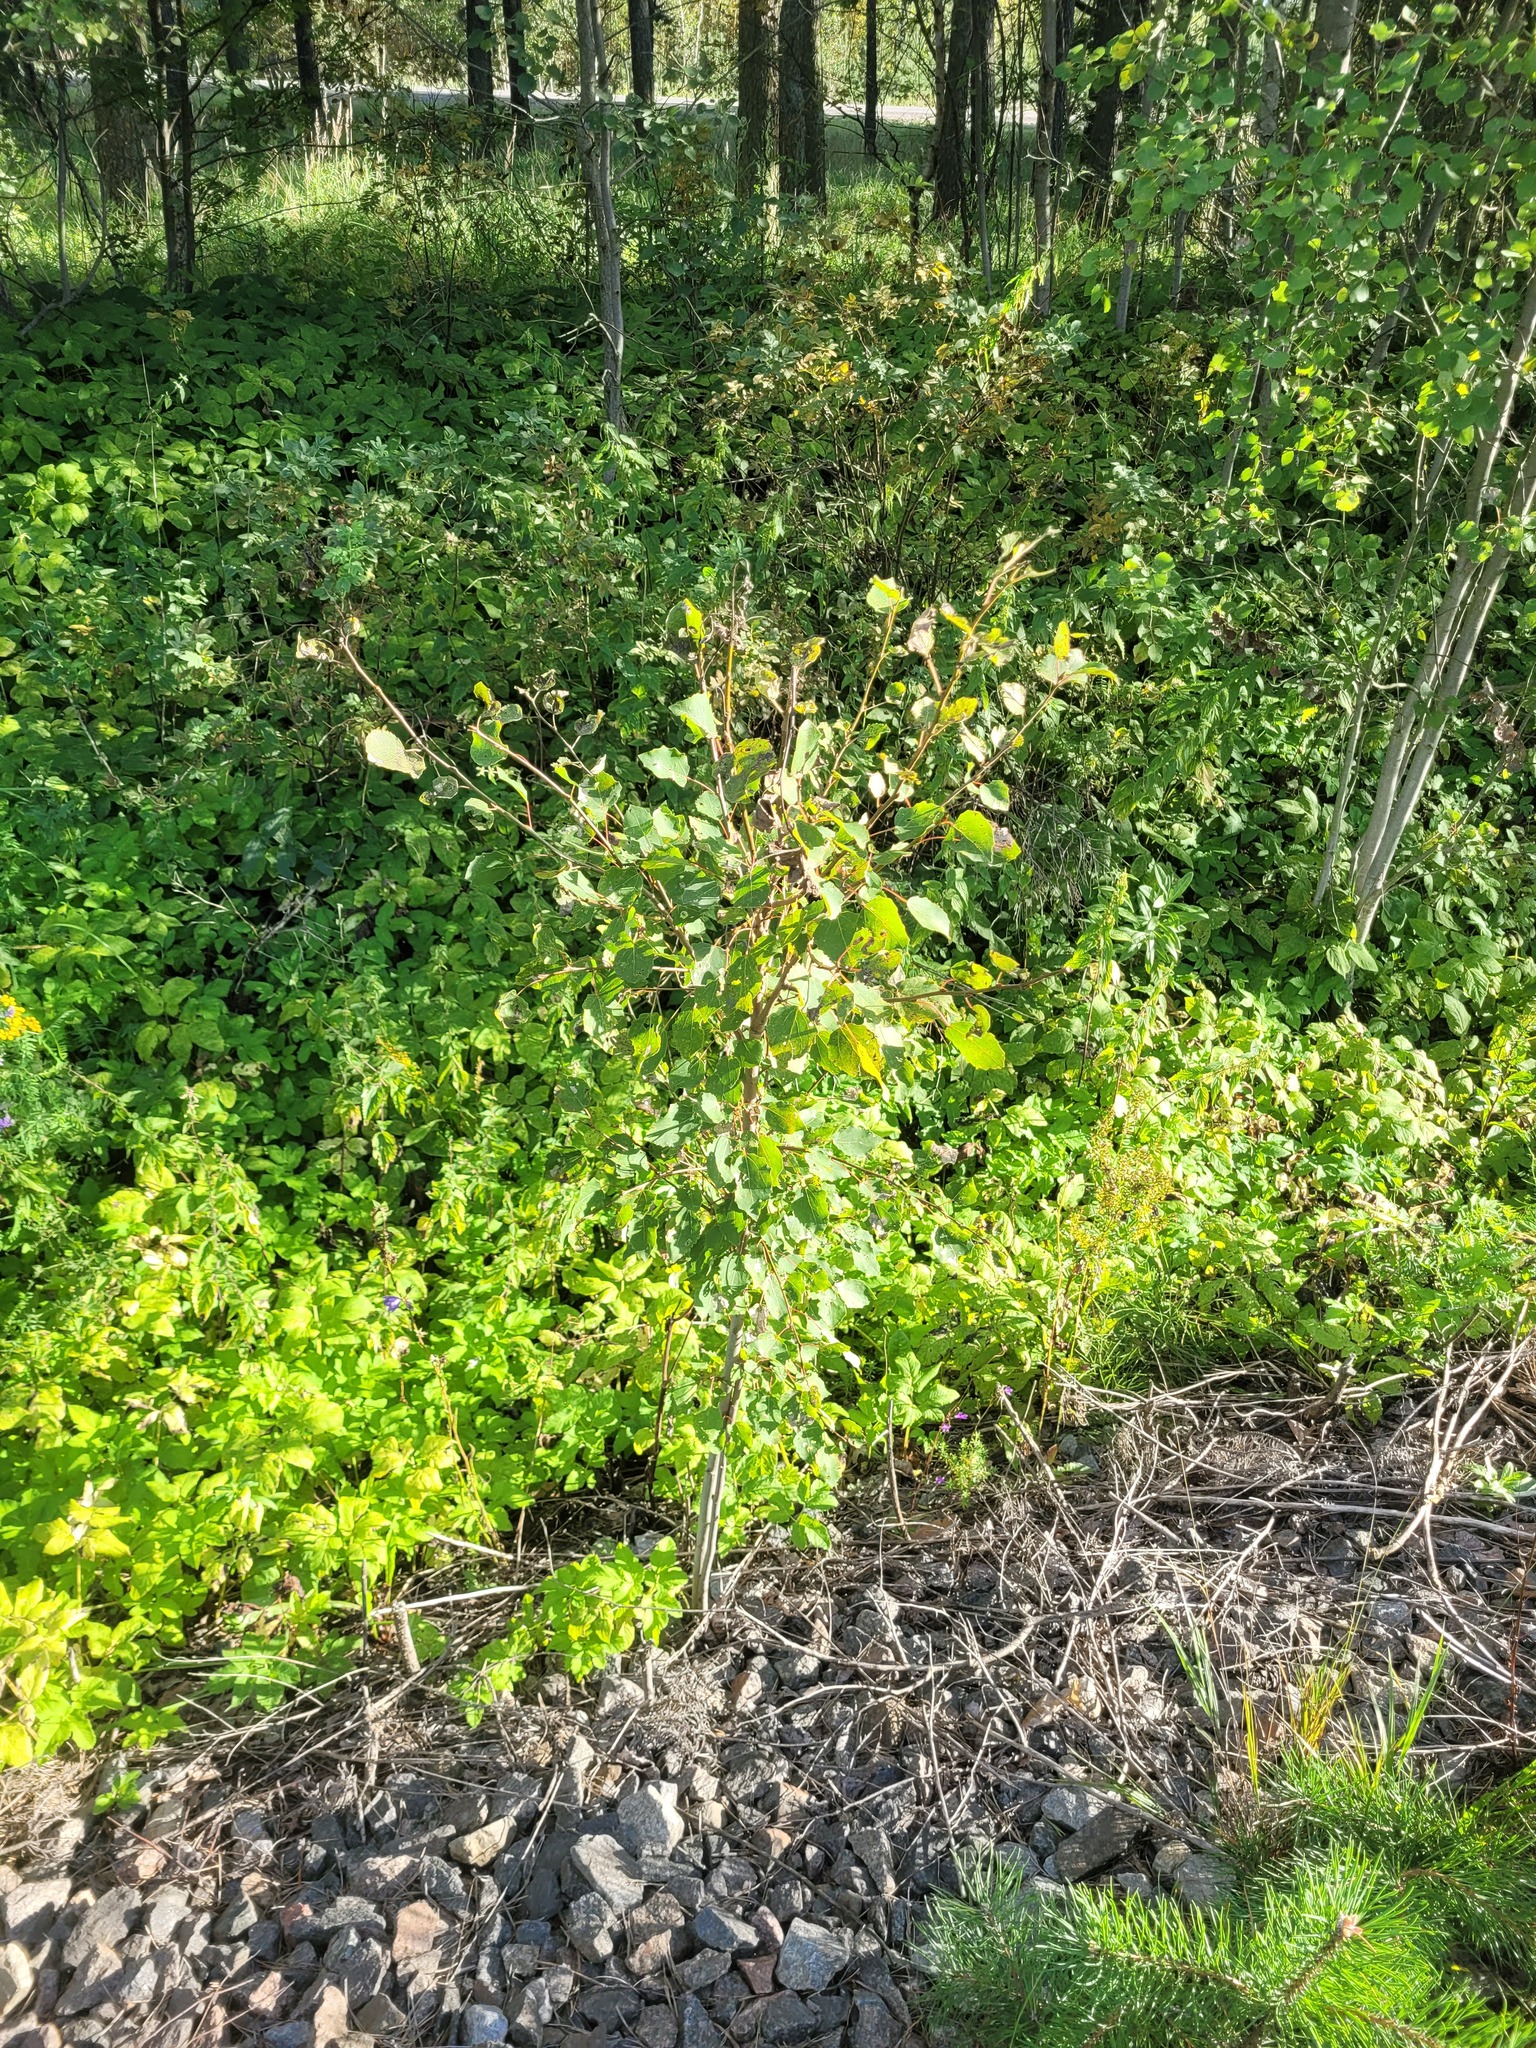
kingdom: Plantae
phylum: Tracheophyta
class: Magnoliopsida
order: Malpighiales
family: Salicaceae
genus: Populus
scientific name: Populus tremula
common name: European aspen
